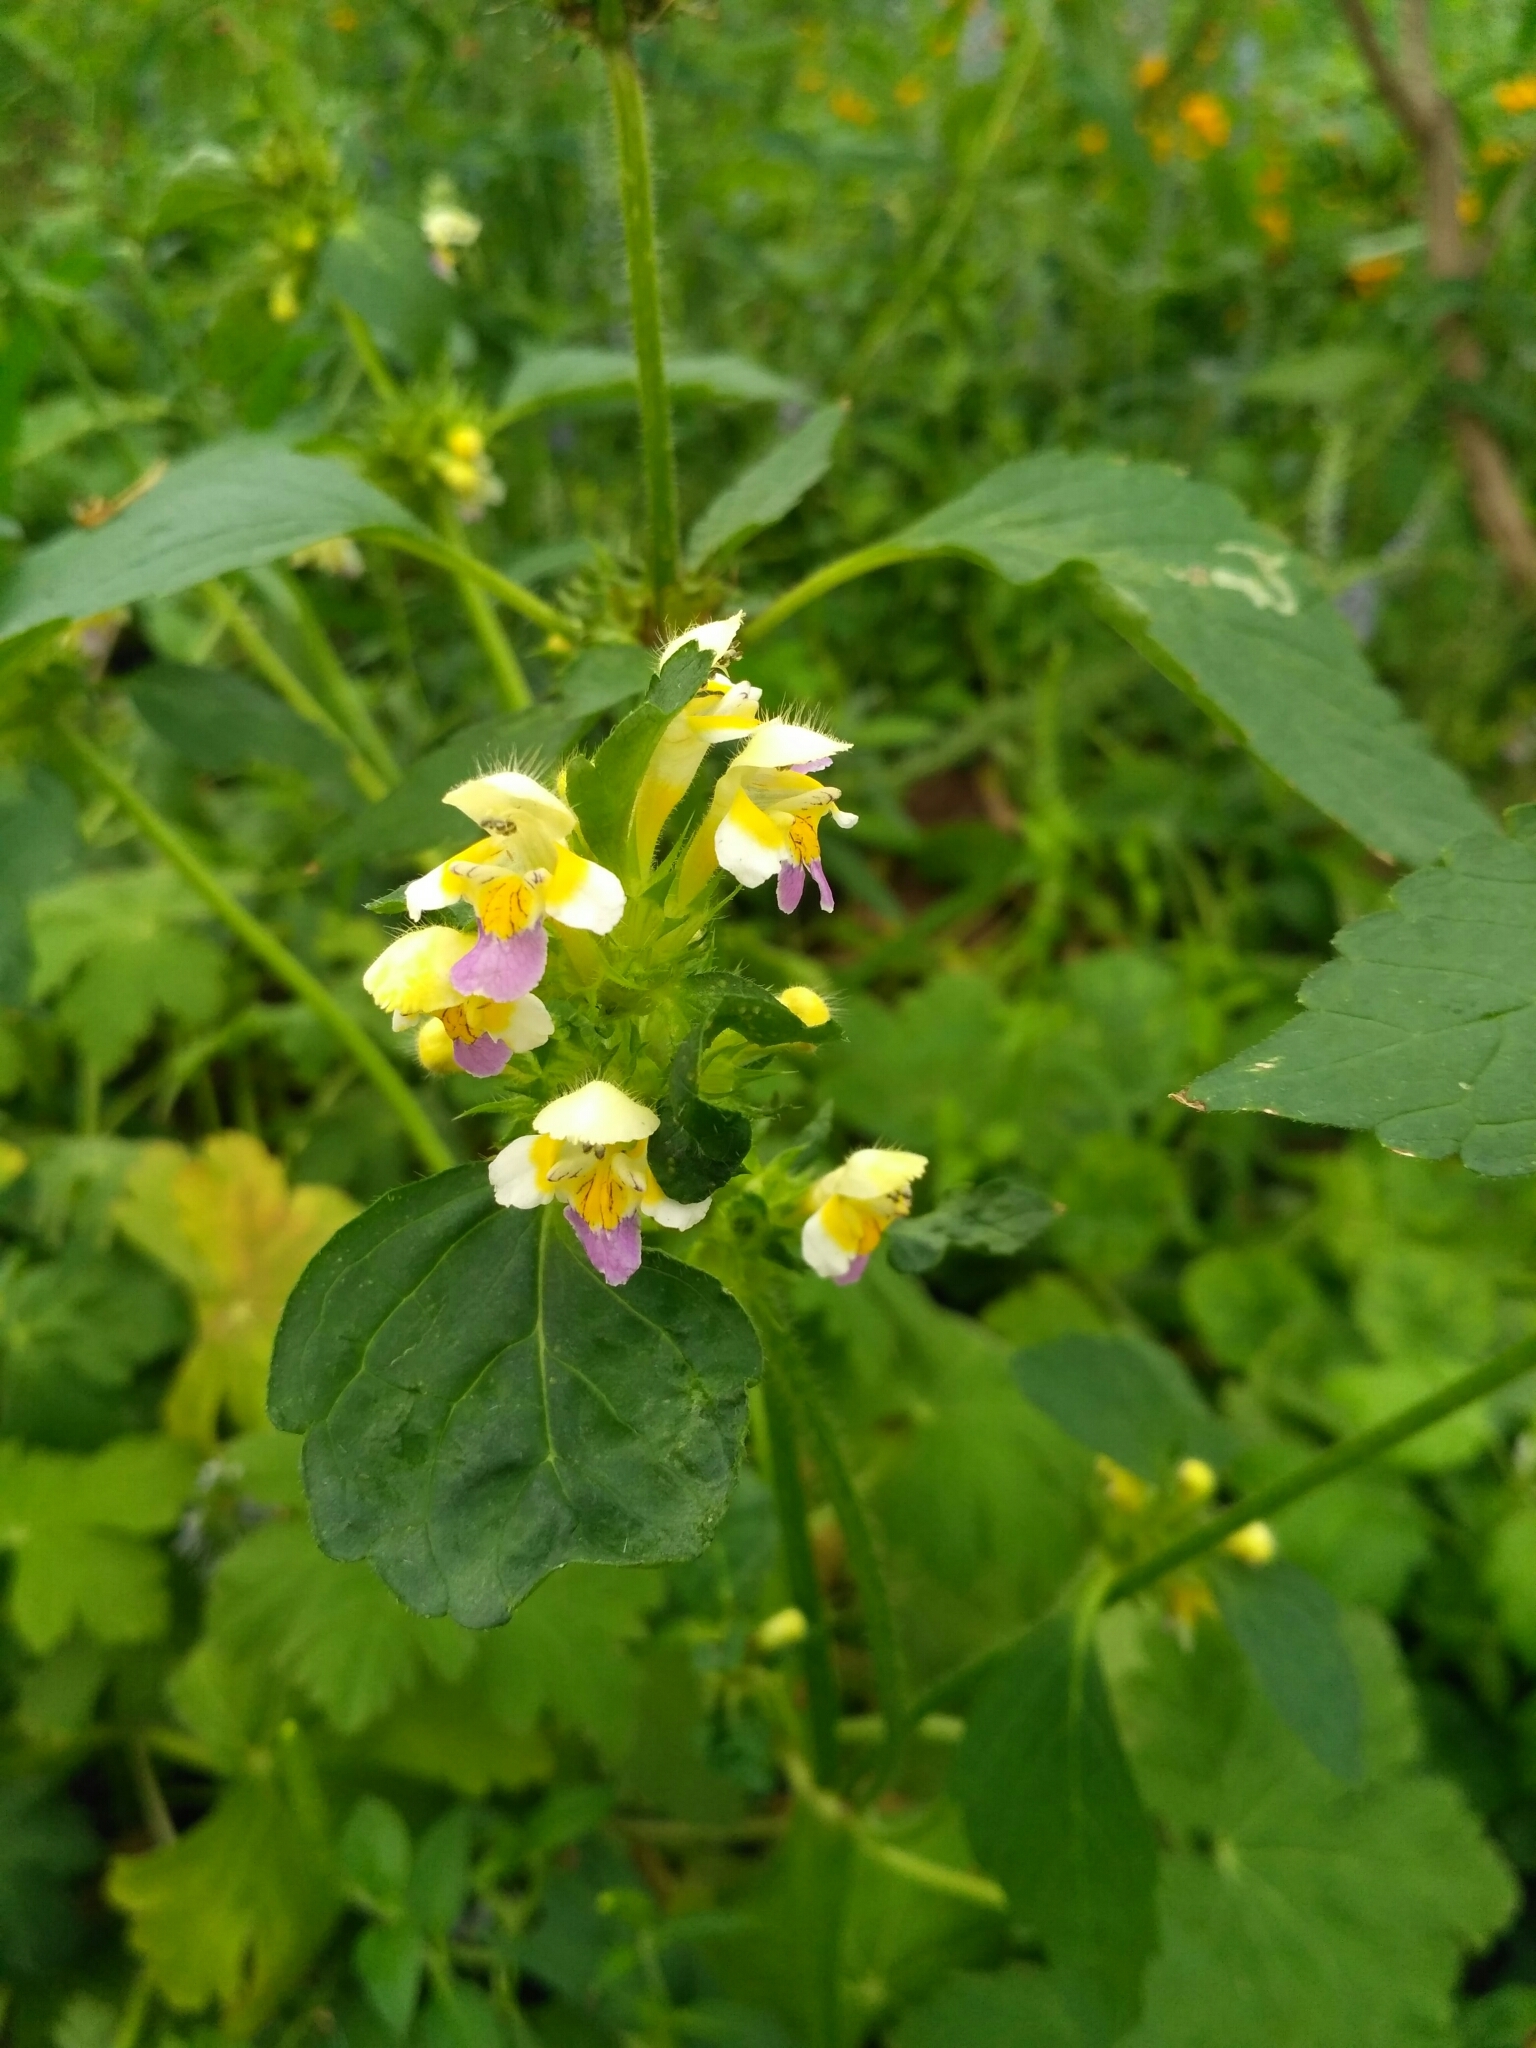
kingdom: Plantae
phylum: Tracheophyta
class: Magnoliopsida
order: Lamiales
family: Lamiaceae
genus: Galeopsis
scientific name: Galeopsis speciosa
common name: Large-flowered hemp-nettle
